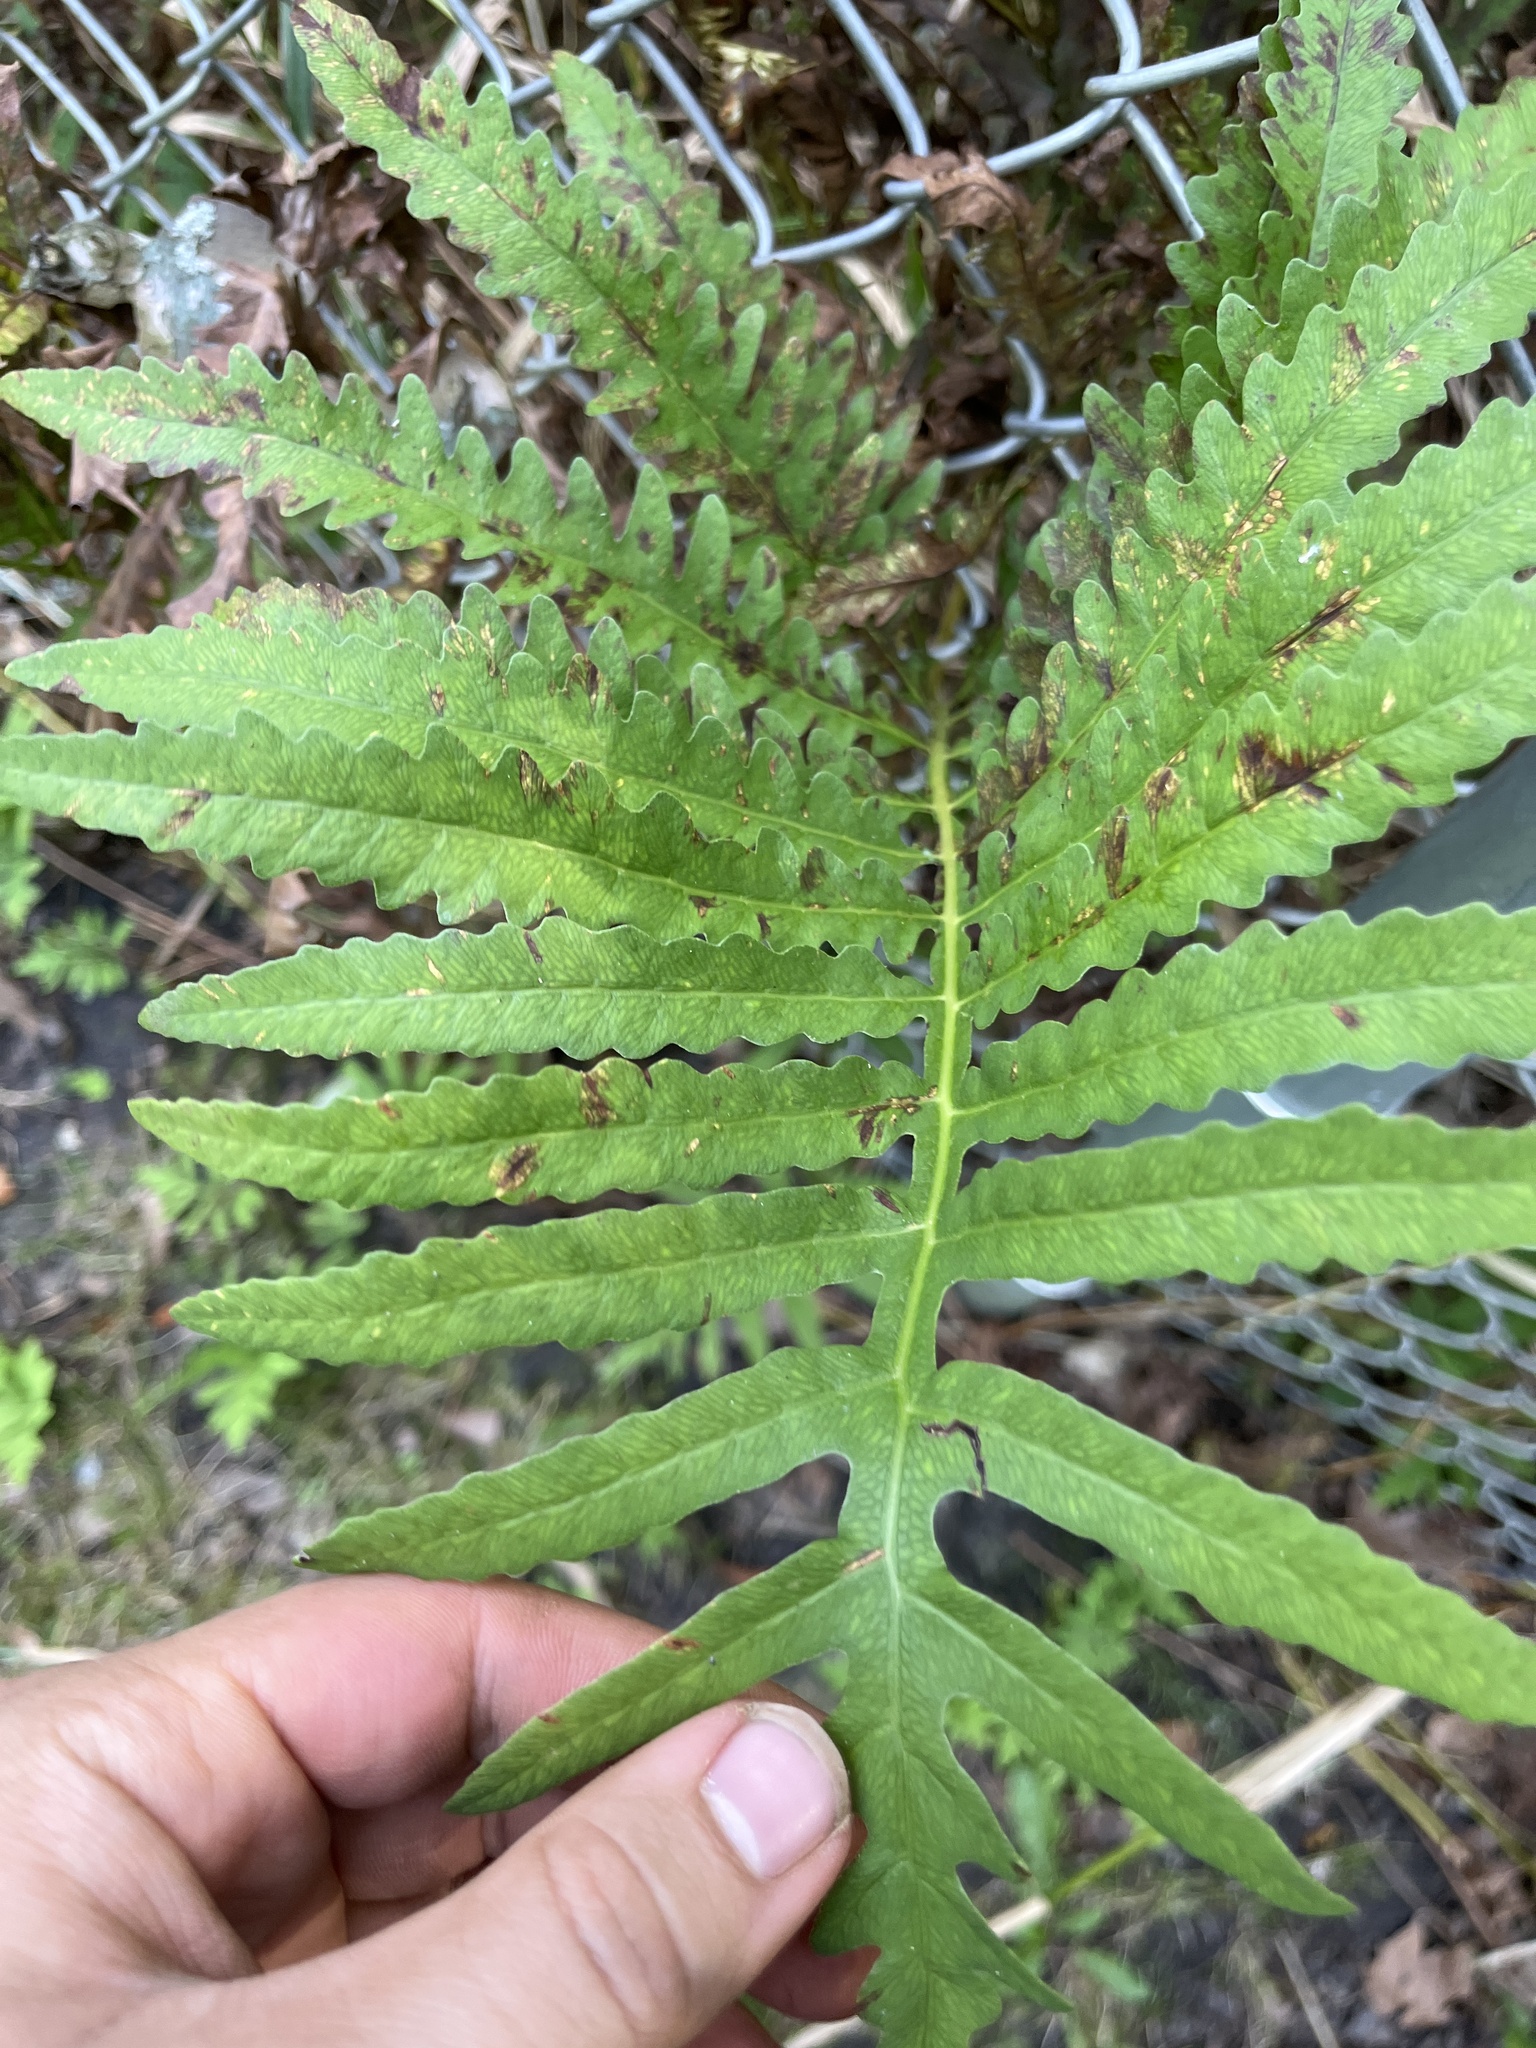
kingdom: Plantae
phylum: Tracheophyta
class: Polypodiopsida
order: Polypodiales
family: Onocleaceae
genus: Onoclea
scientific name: Onoclea sensibilis
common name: Sensitive fern
